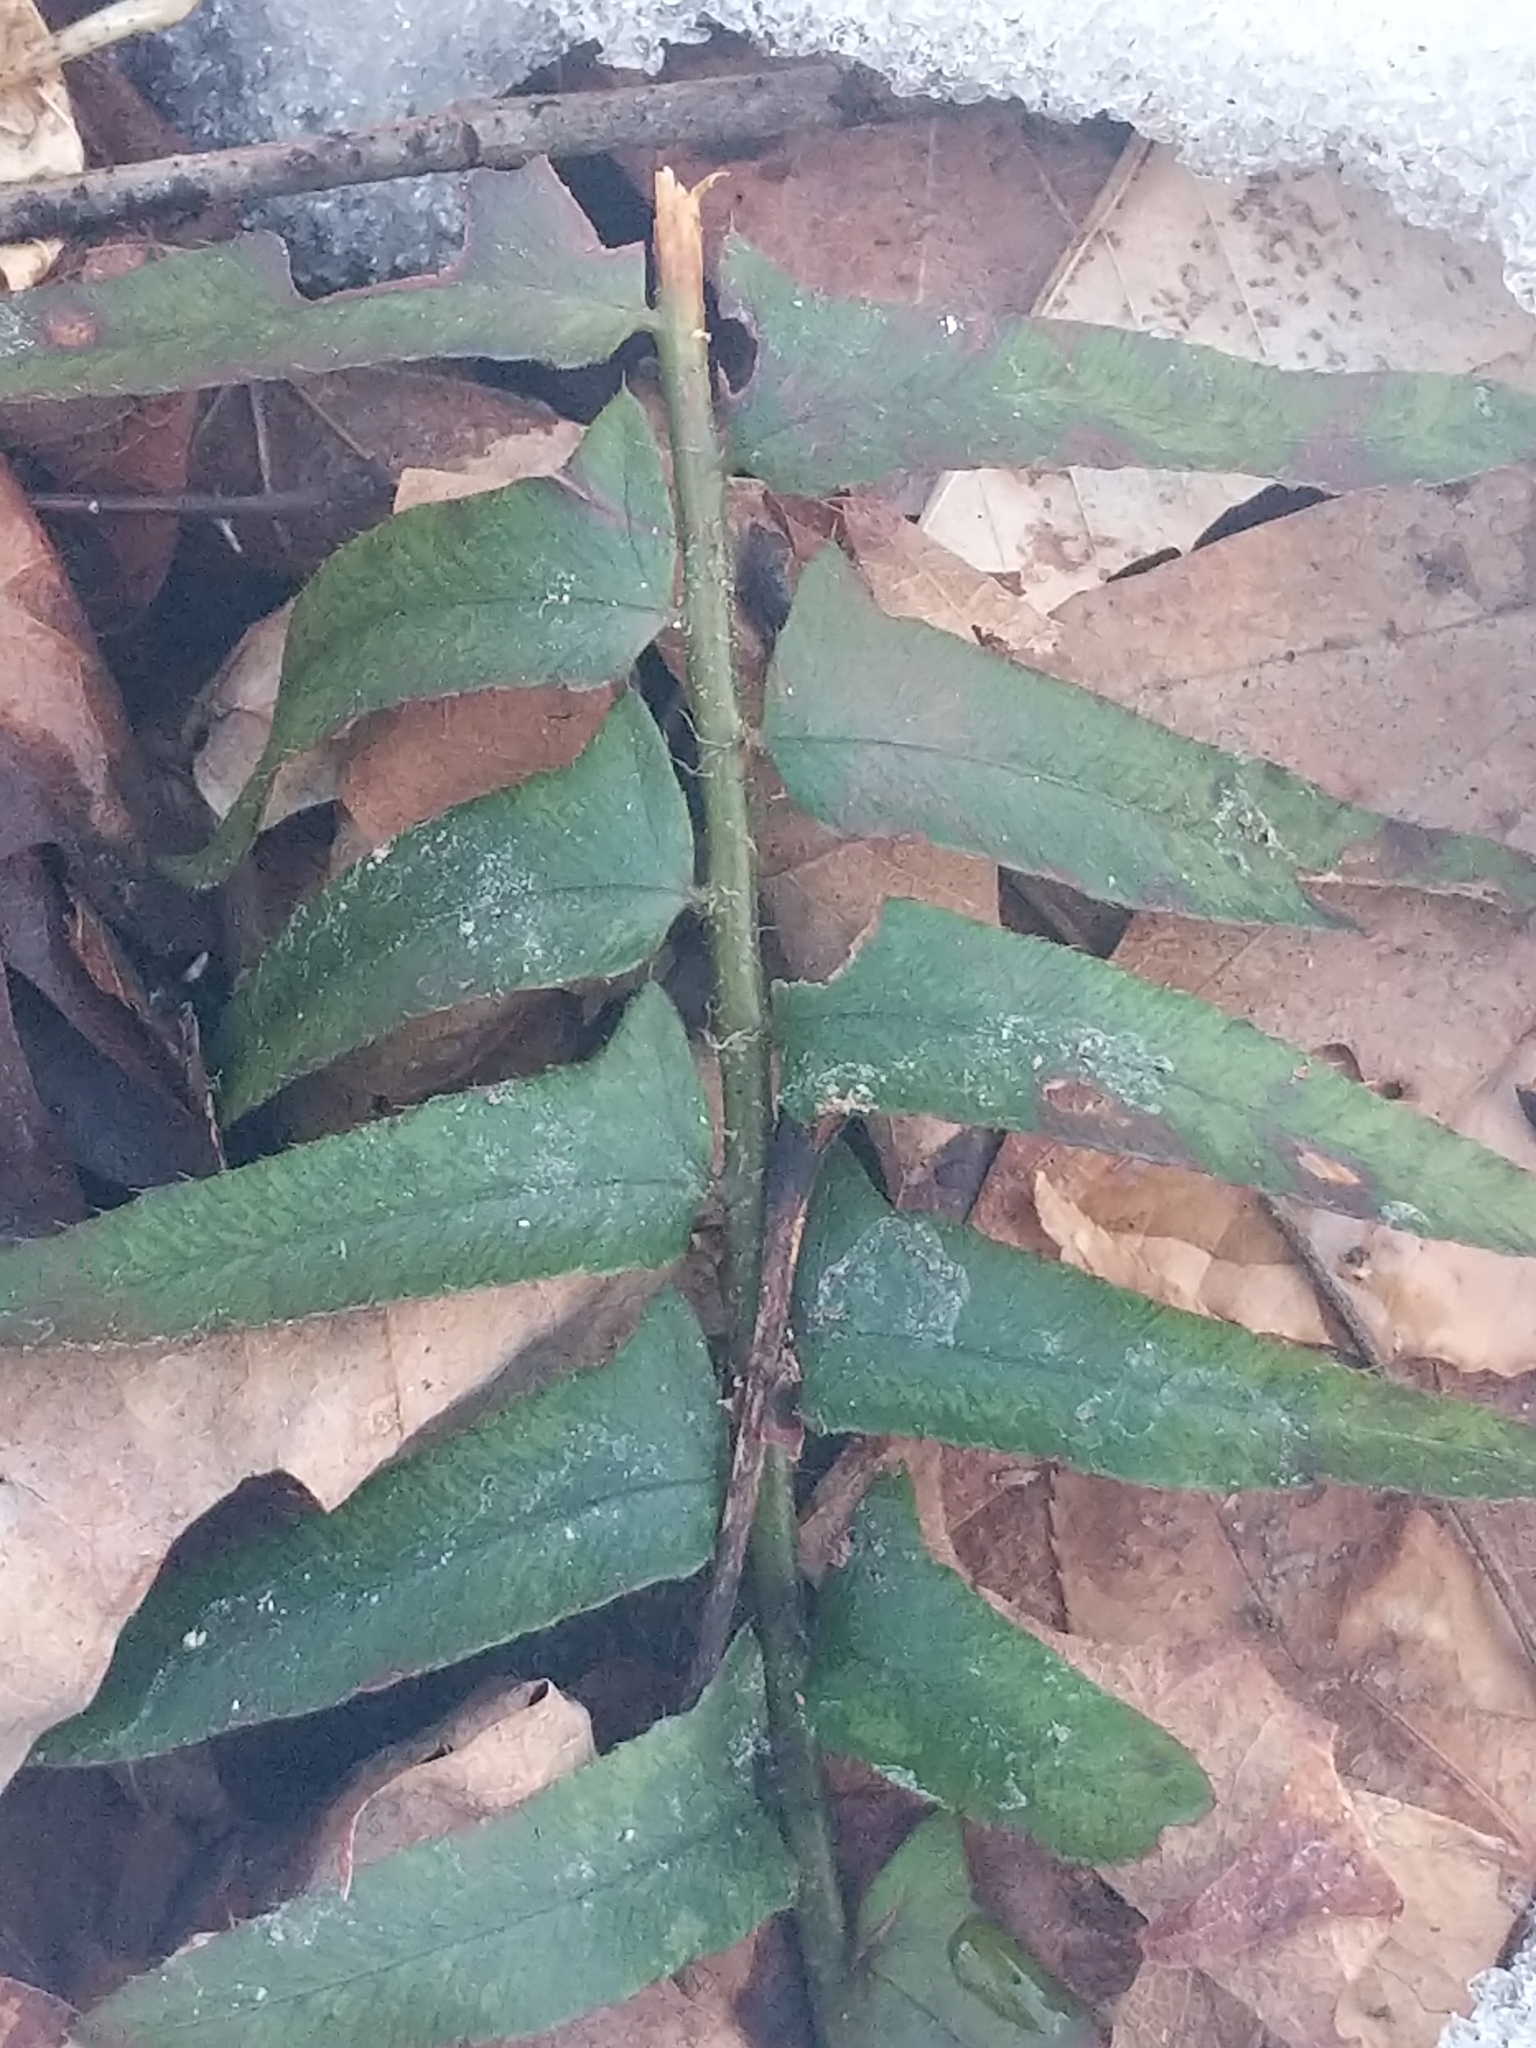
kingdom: Plantae
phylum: Tracheophyta
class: Polypodiopsida
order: Polypodiales
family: Dryopteridaceae
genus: Polystichum
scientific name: Polystichum acrostichoides
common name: Christmas fern
